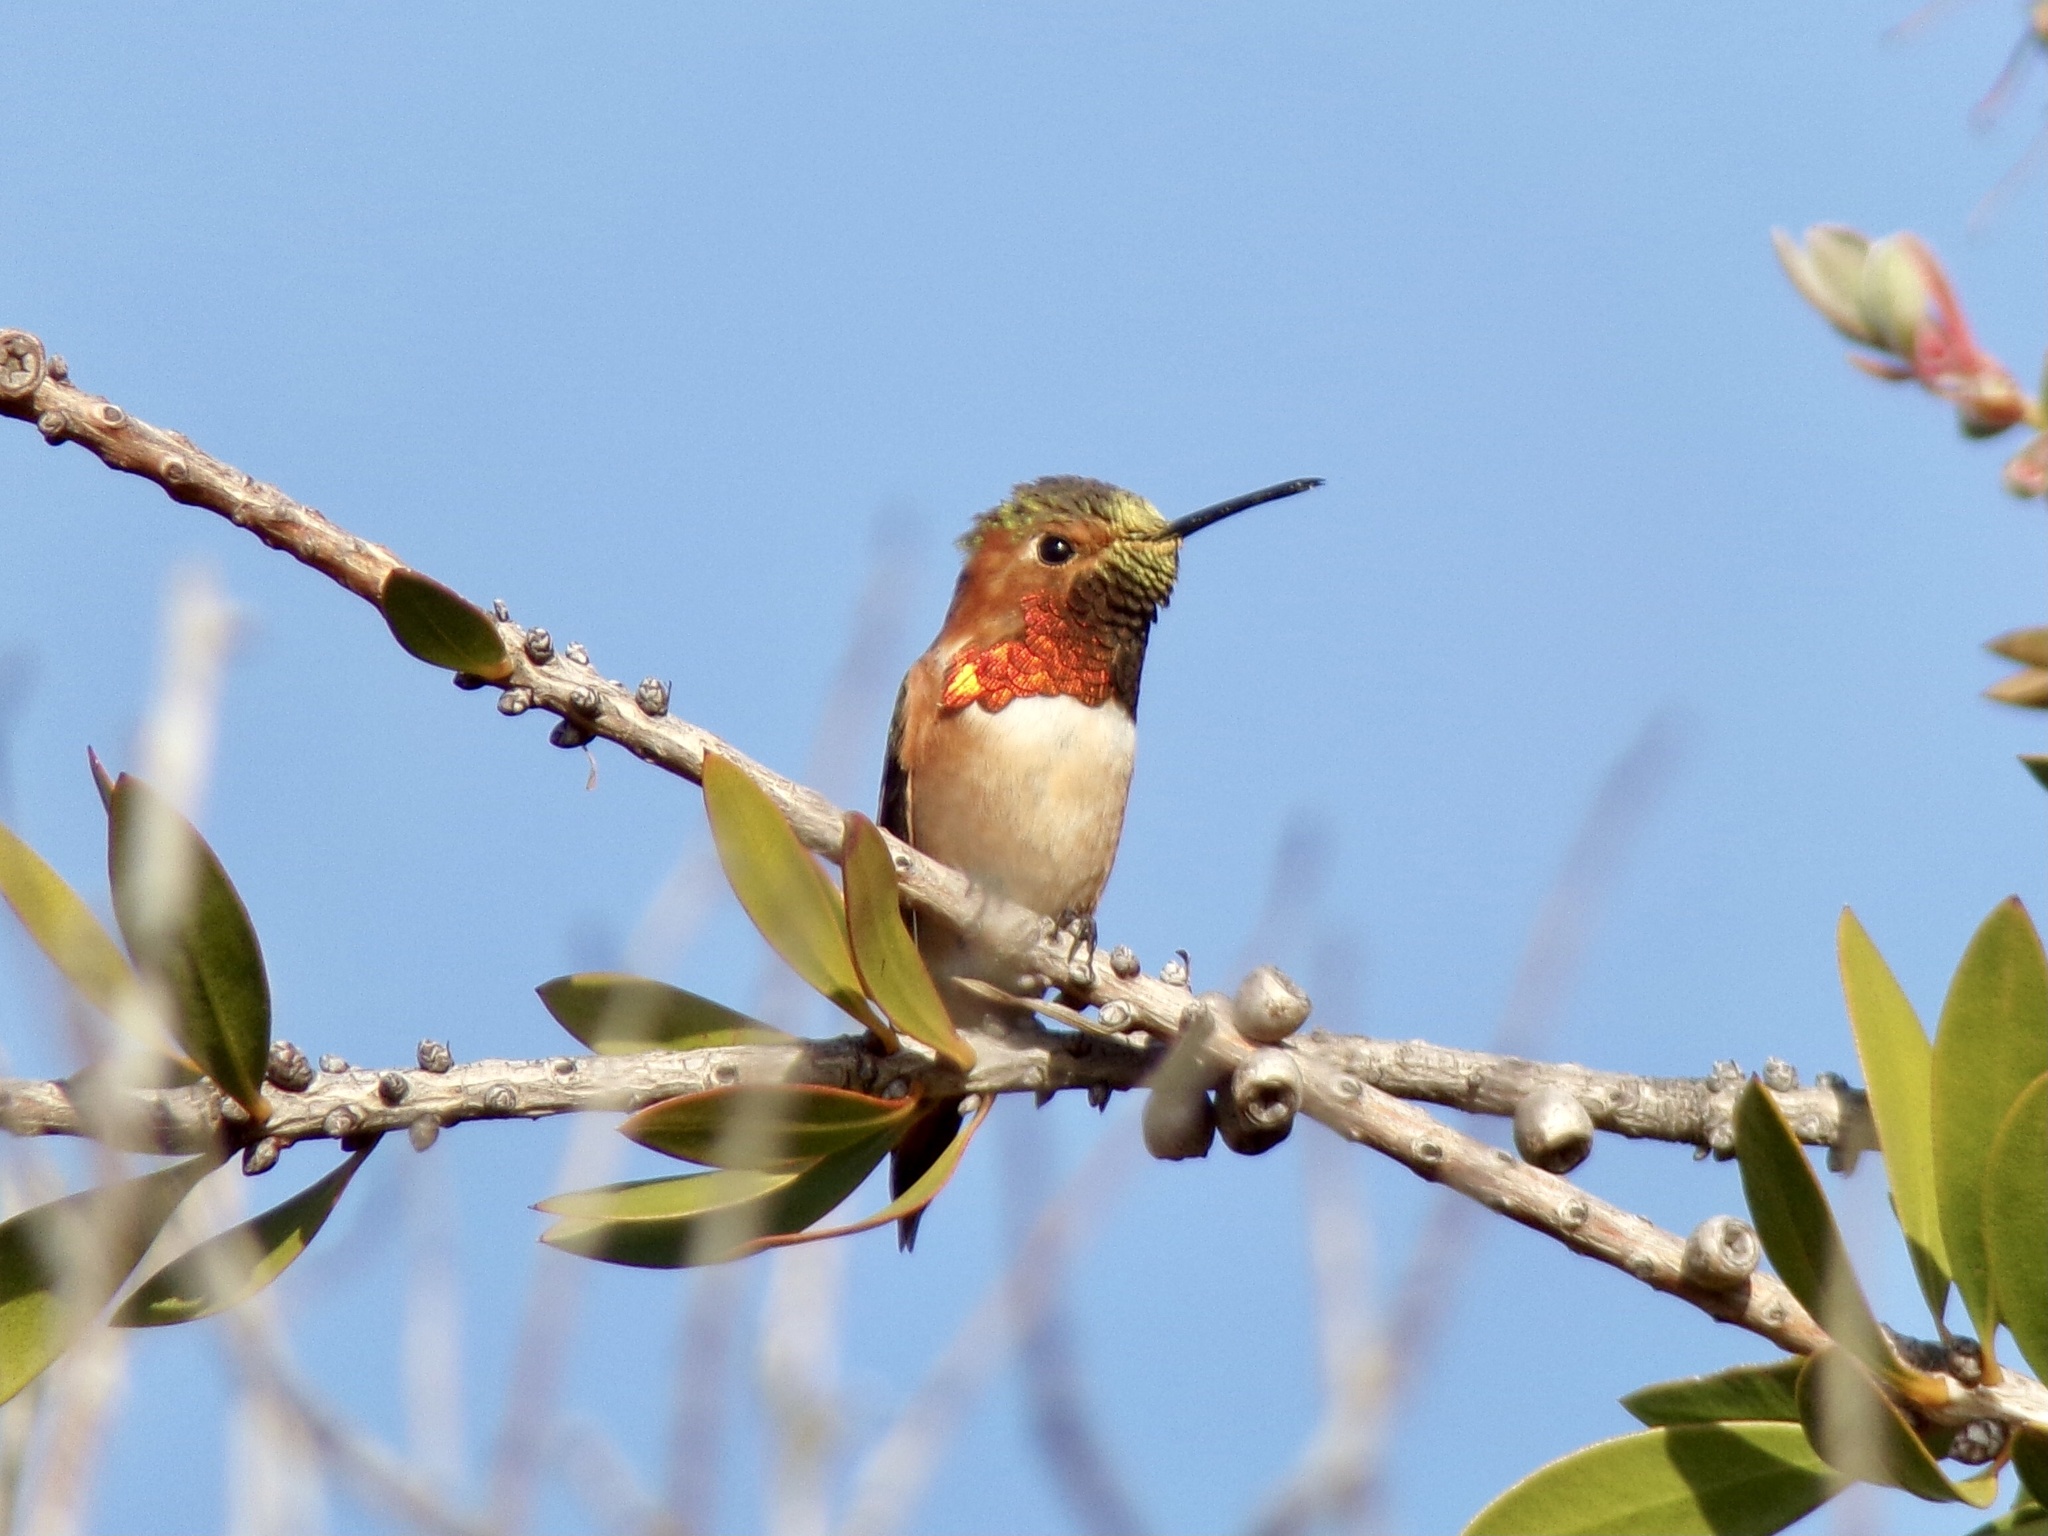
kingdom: Animalia
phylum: Chordata
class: Aves
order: Apodiformes
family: Trochilidae
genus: Selasphorus
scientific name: Selasphorus sasin
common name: Allen's hummingbird
